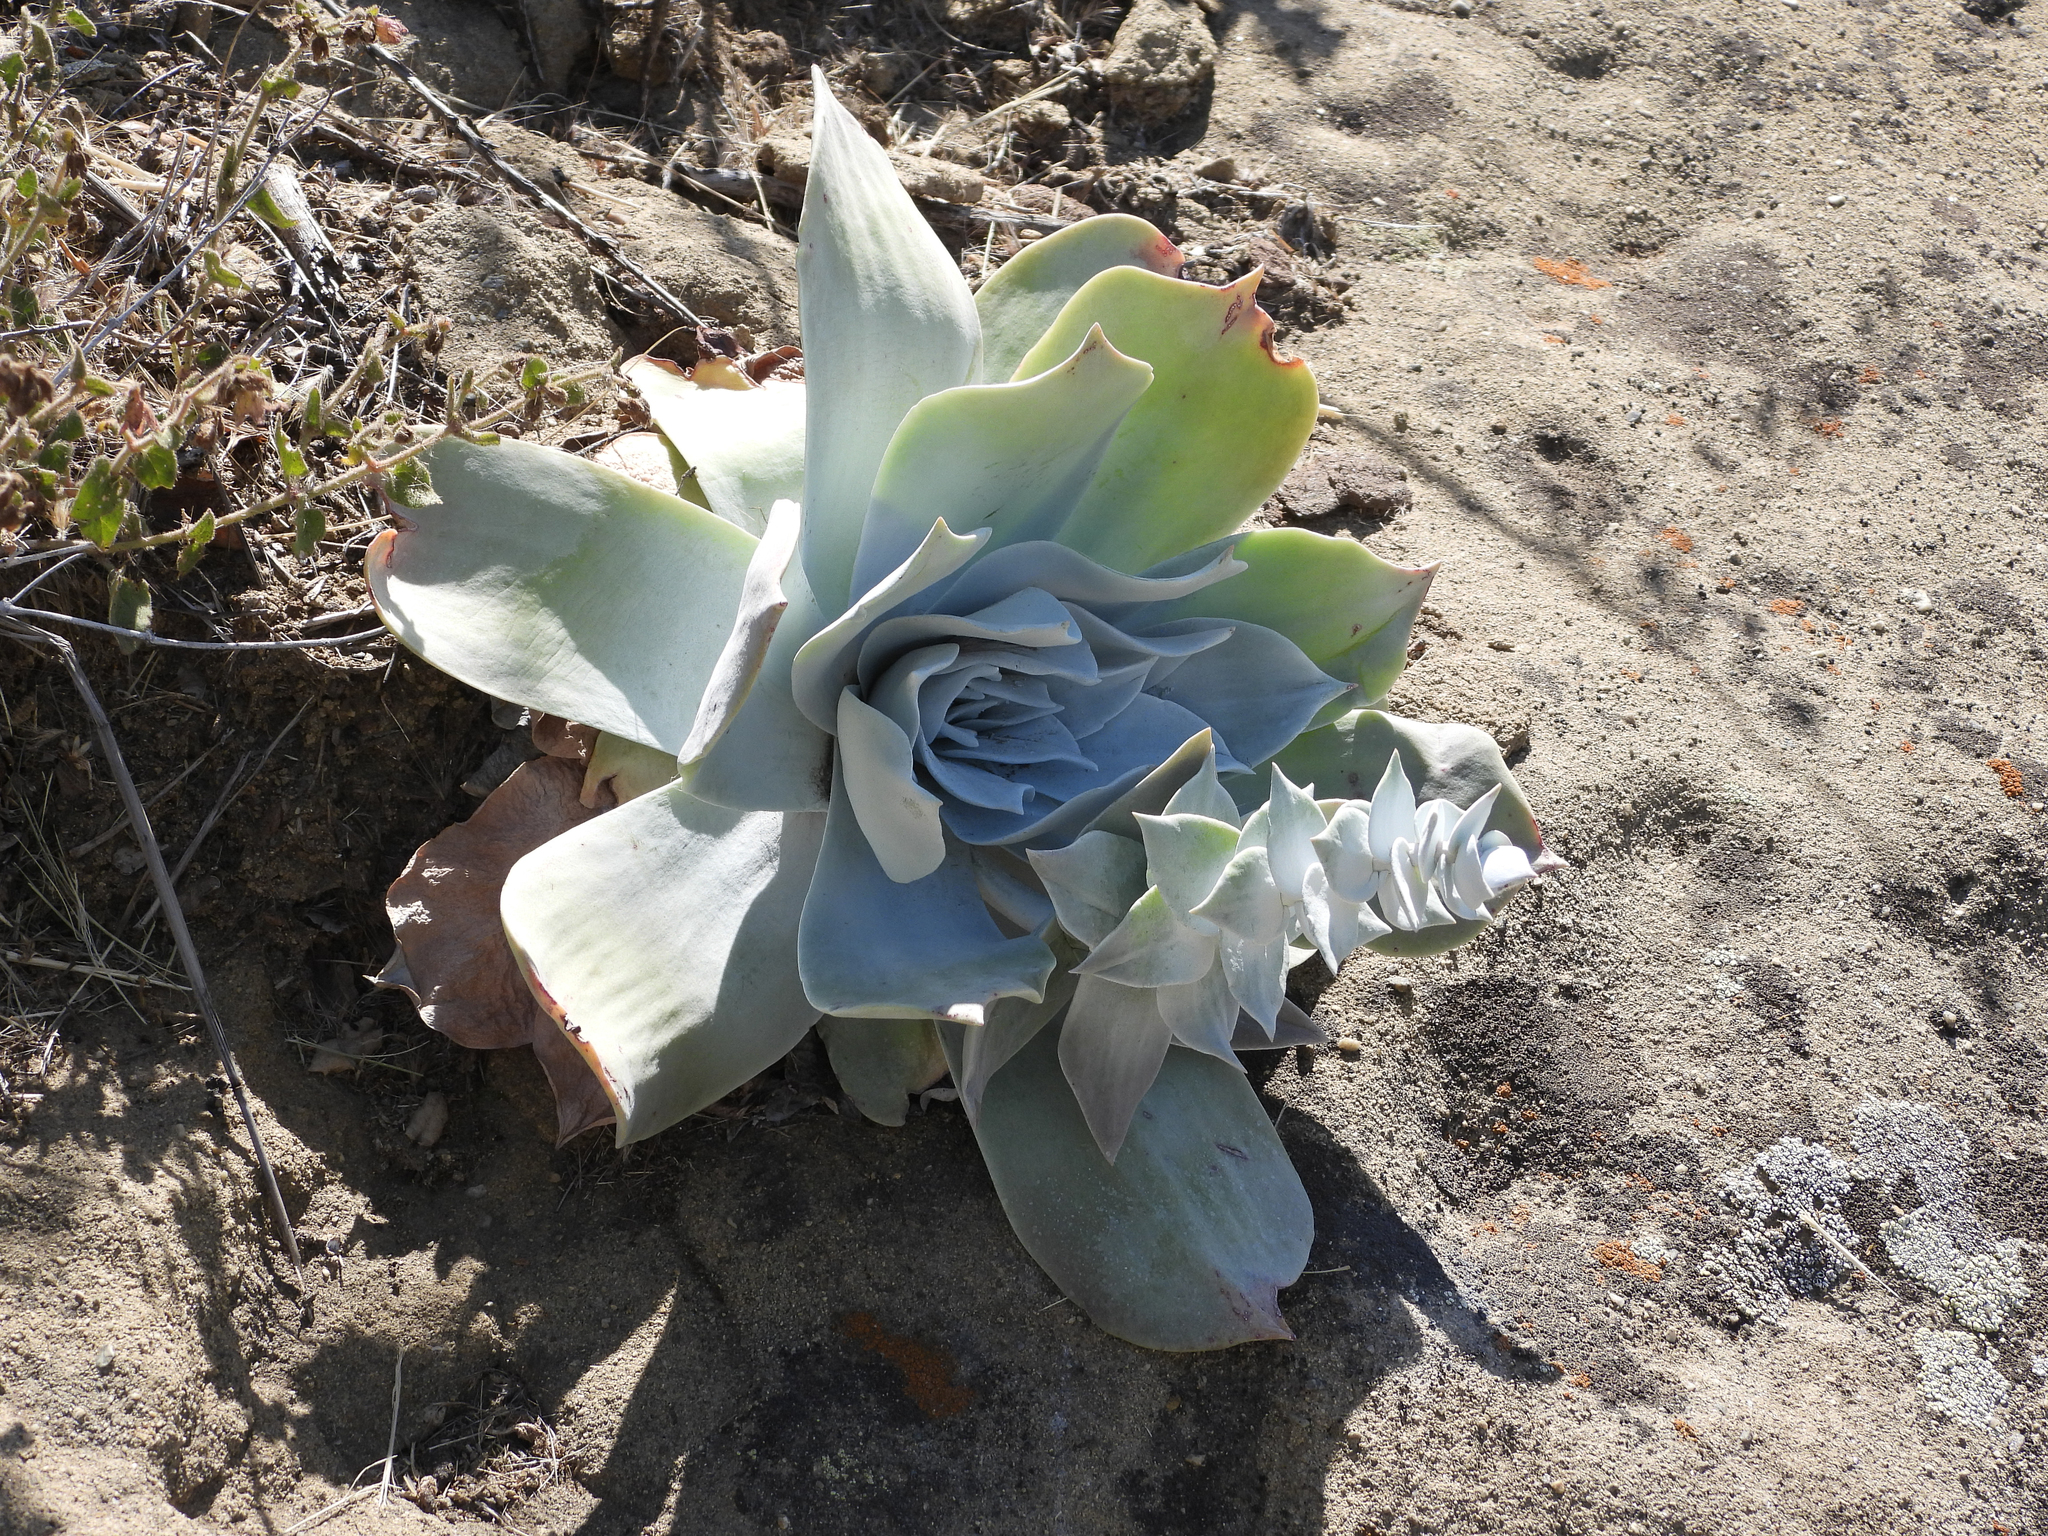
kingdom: Plantae
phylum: Tracheophyta
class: Magnoliopsida
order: Saxifragales
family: Crassulaceae
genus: Dudleya
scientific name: Dudleya pulverulenta
